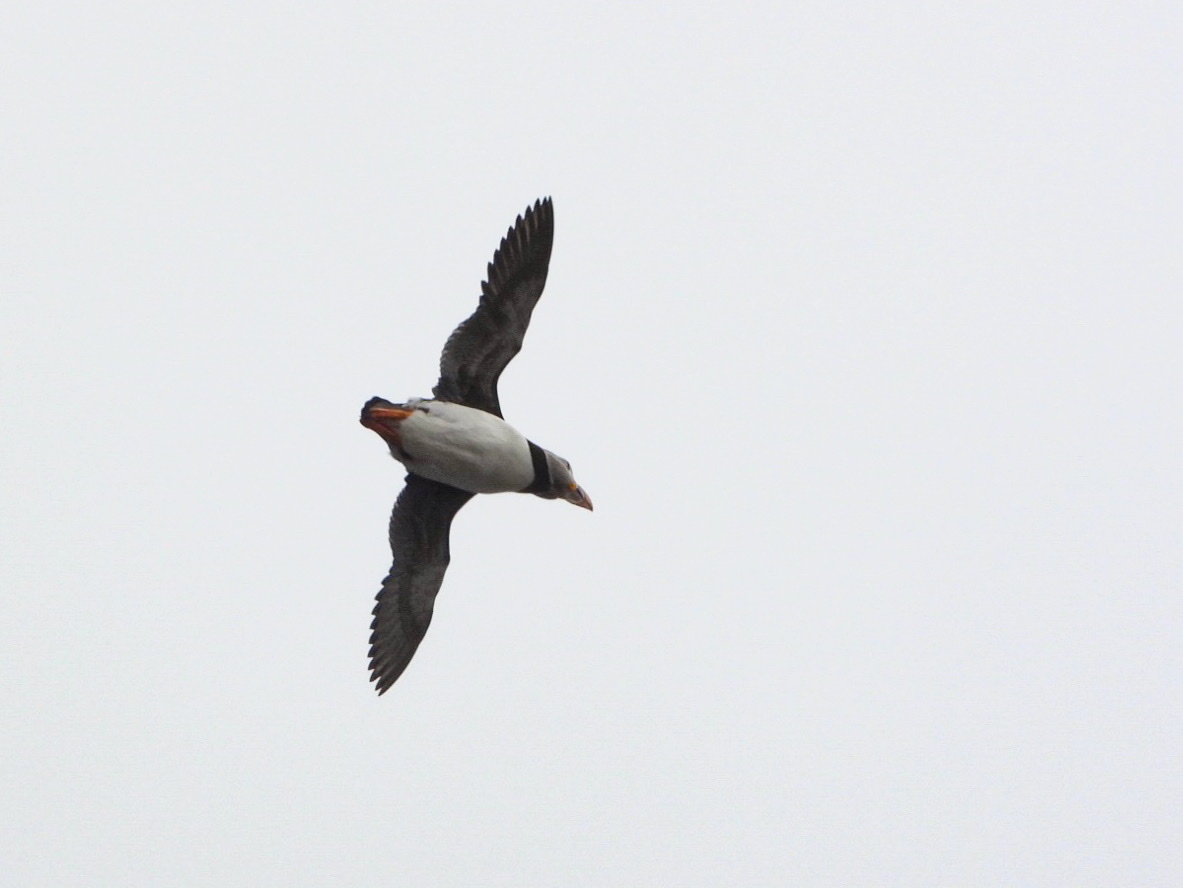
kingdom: Animalia
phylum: Chordata
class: Aves
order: Charadriiformes
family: Alcidae
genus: Fratercula
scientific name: Fratercula arctica
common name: Atlantic puffin
